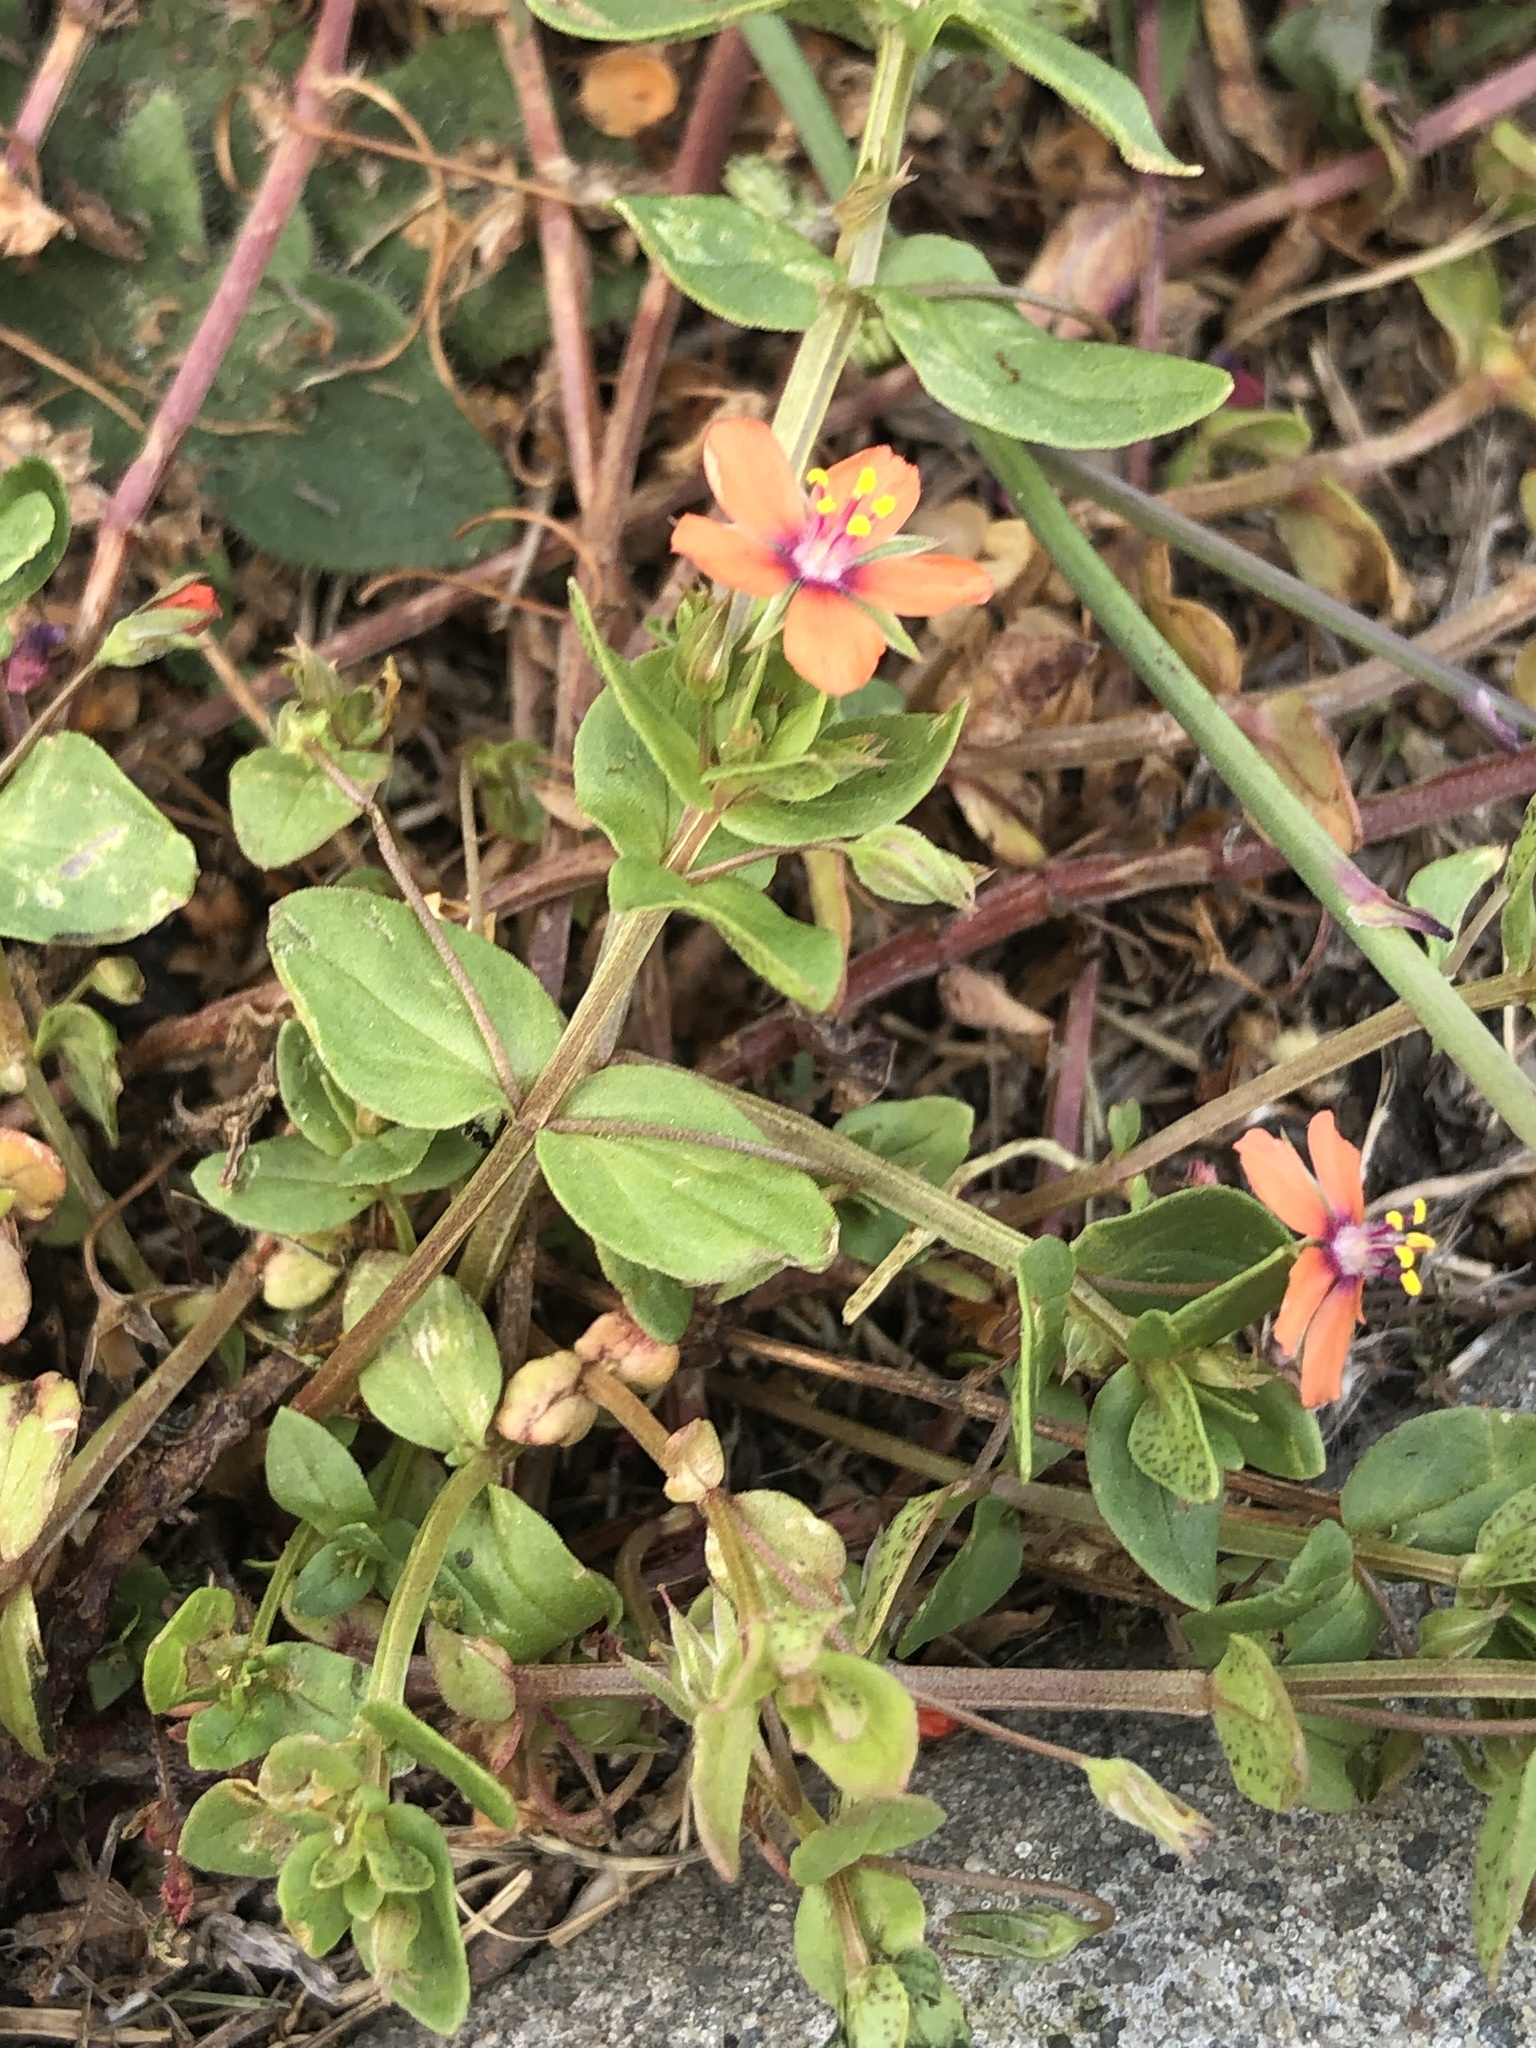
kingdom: Plantae
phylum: Tracheophyta
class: Magnoliopsida
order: Ericales
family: Primulaceae
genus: Lysimachia
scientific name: Lysimachia arvensis
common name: Scarlet pimpernel
